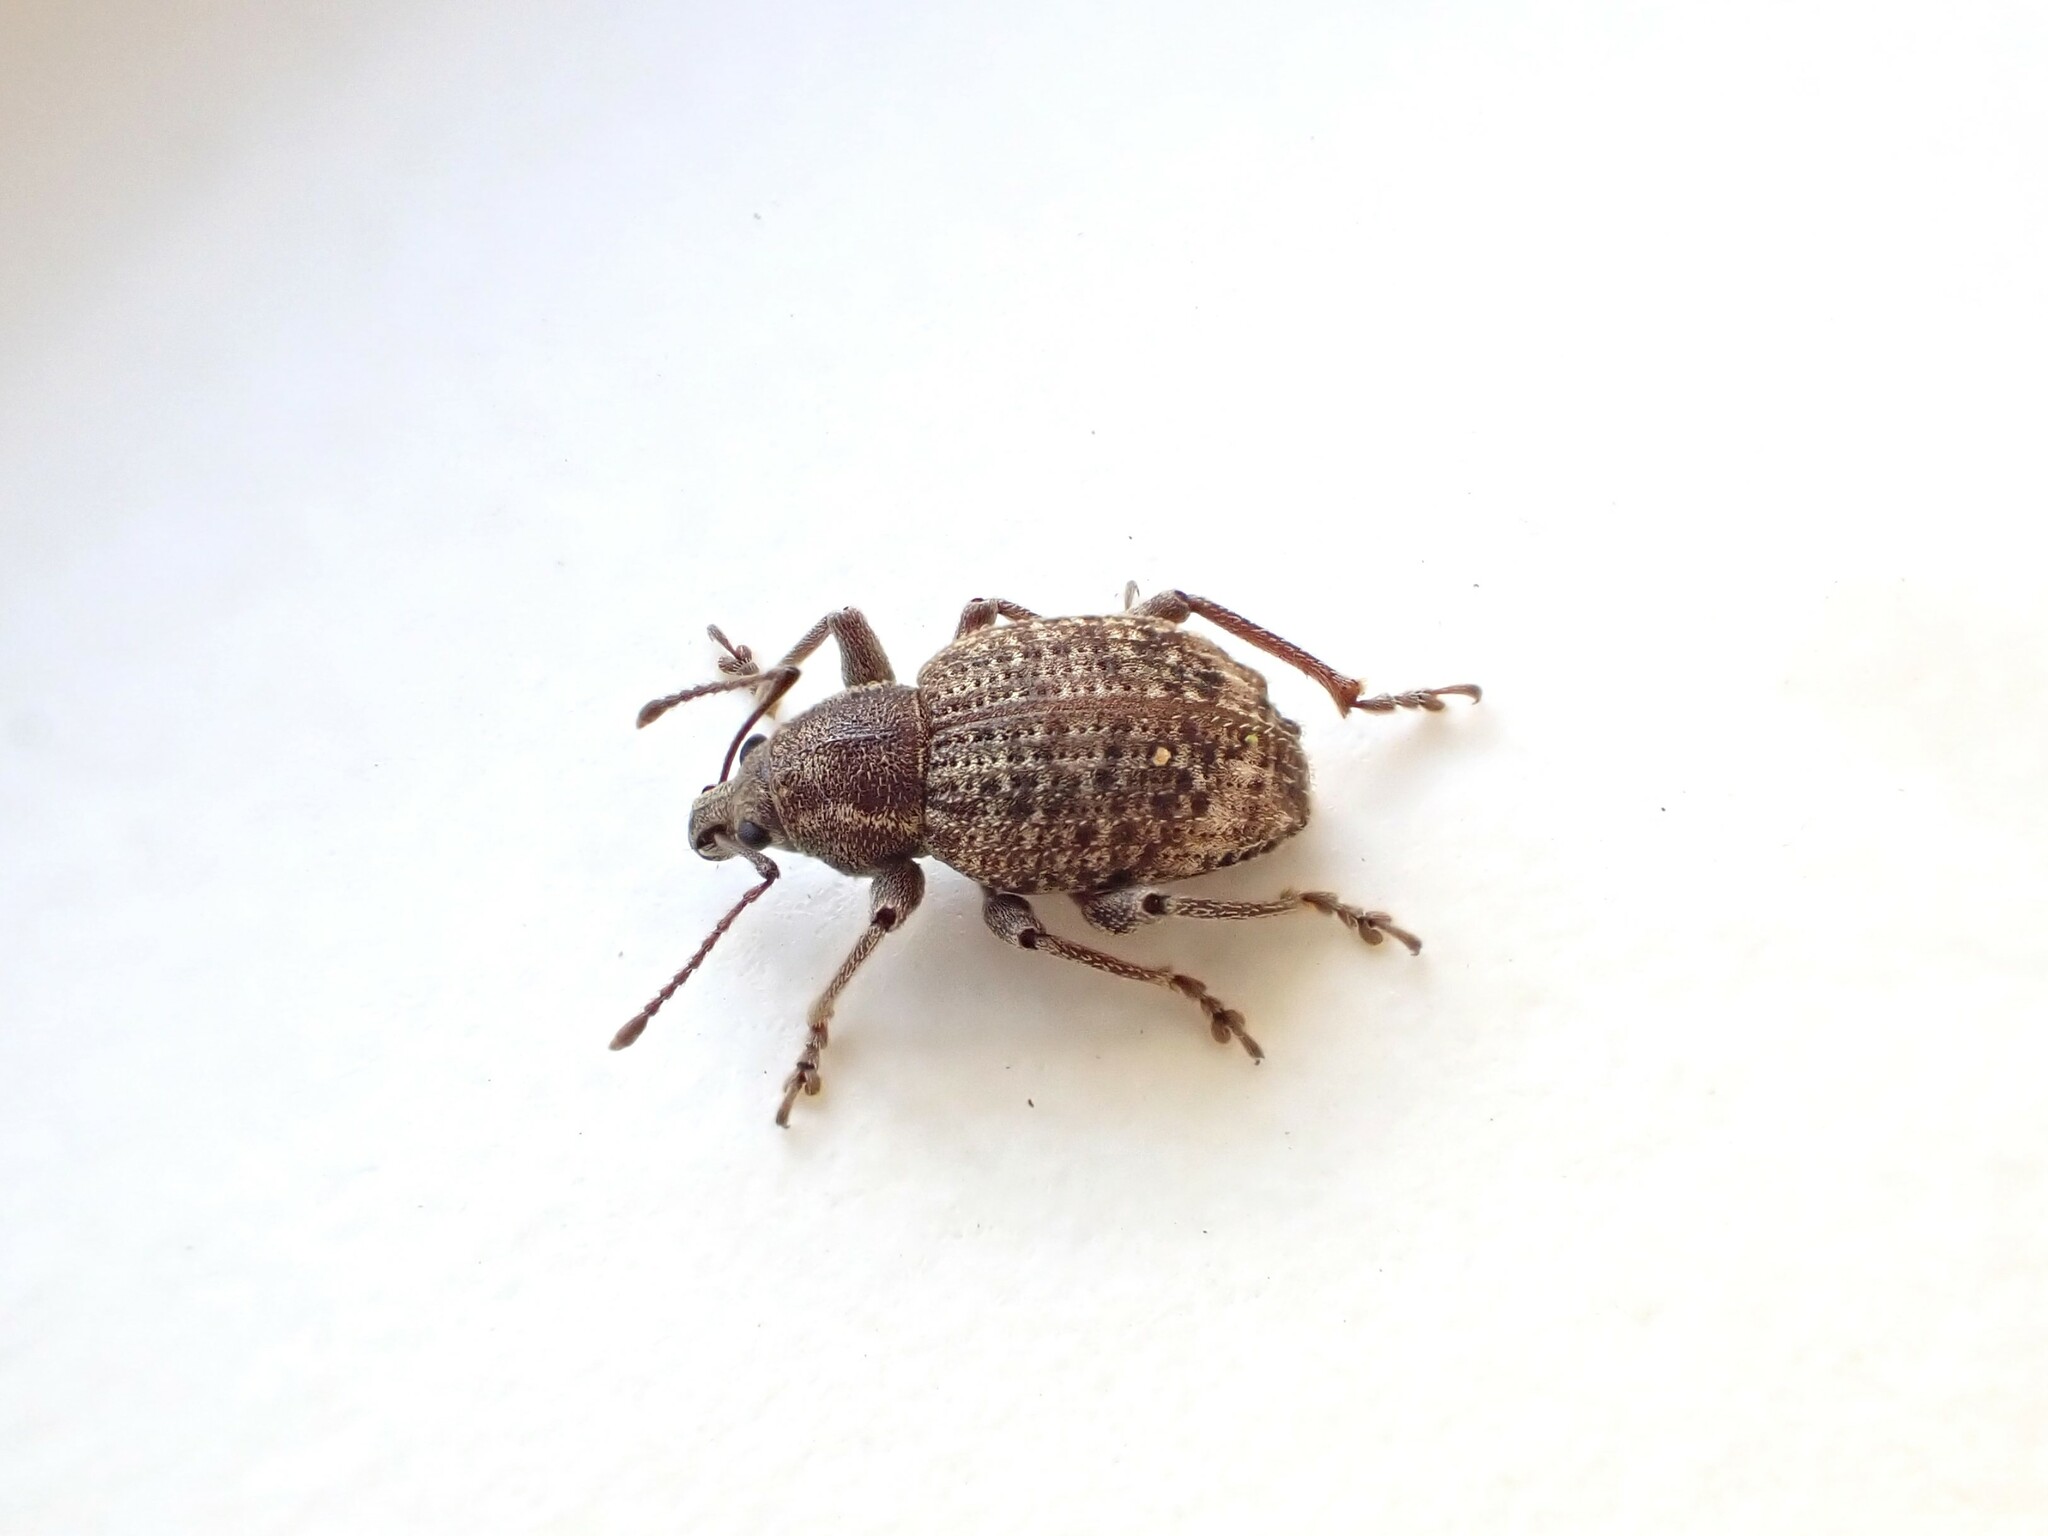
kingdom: Animalia
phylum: Arthropoda
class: Insecta
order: Coleoptera
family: Curculionidae
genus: Phlyctinus
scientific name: Phlyctinus callosus
